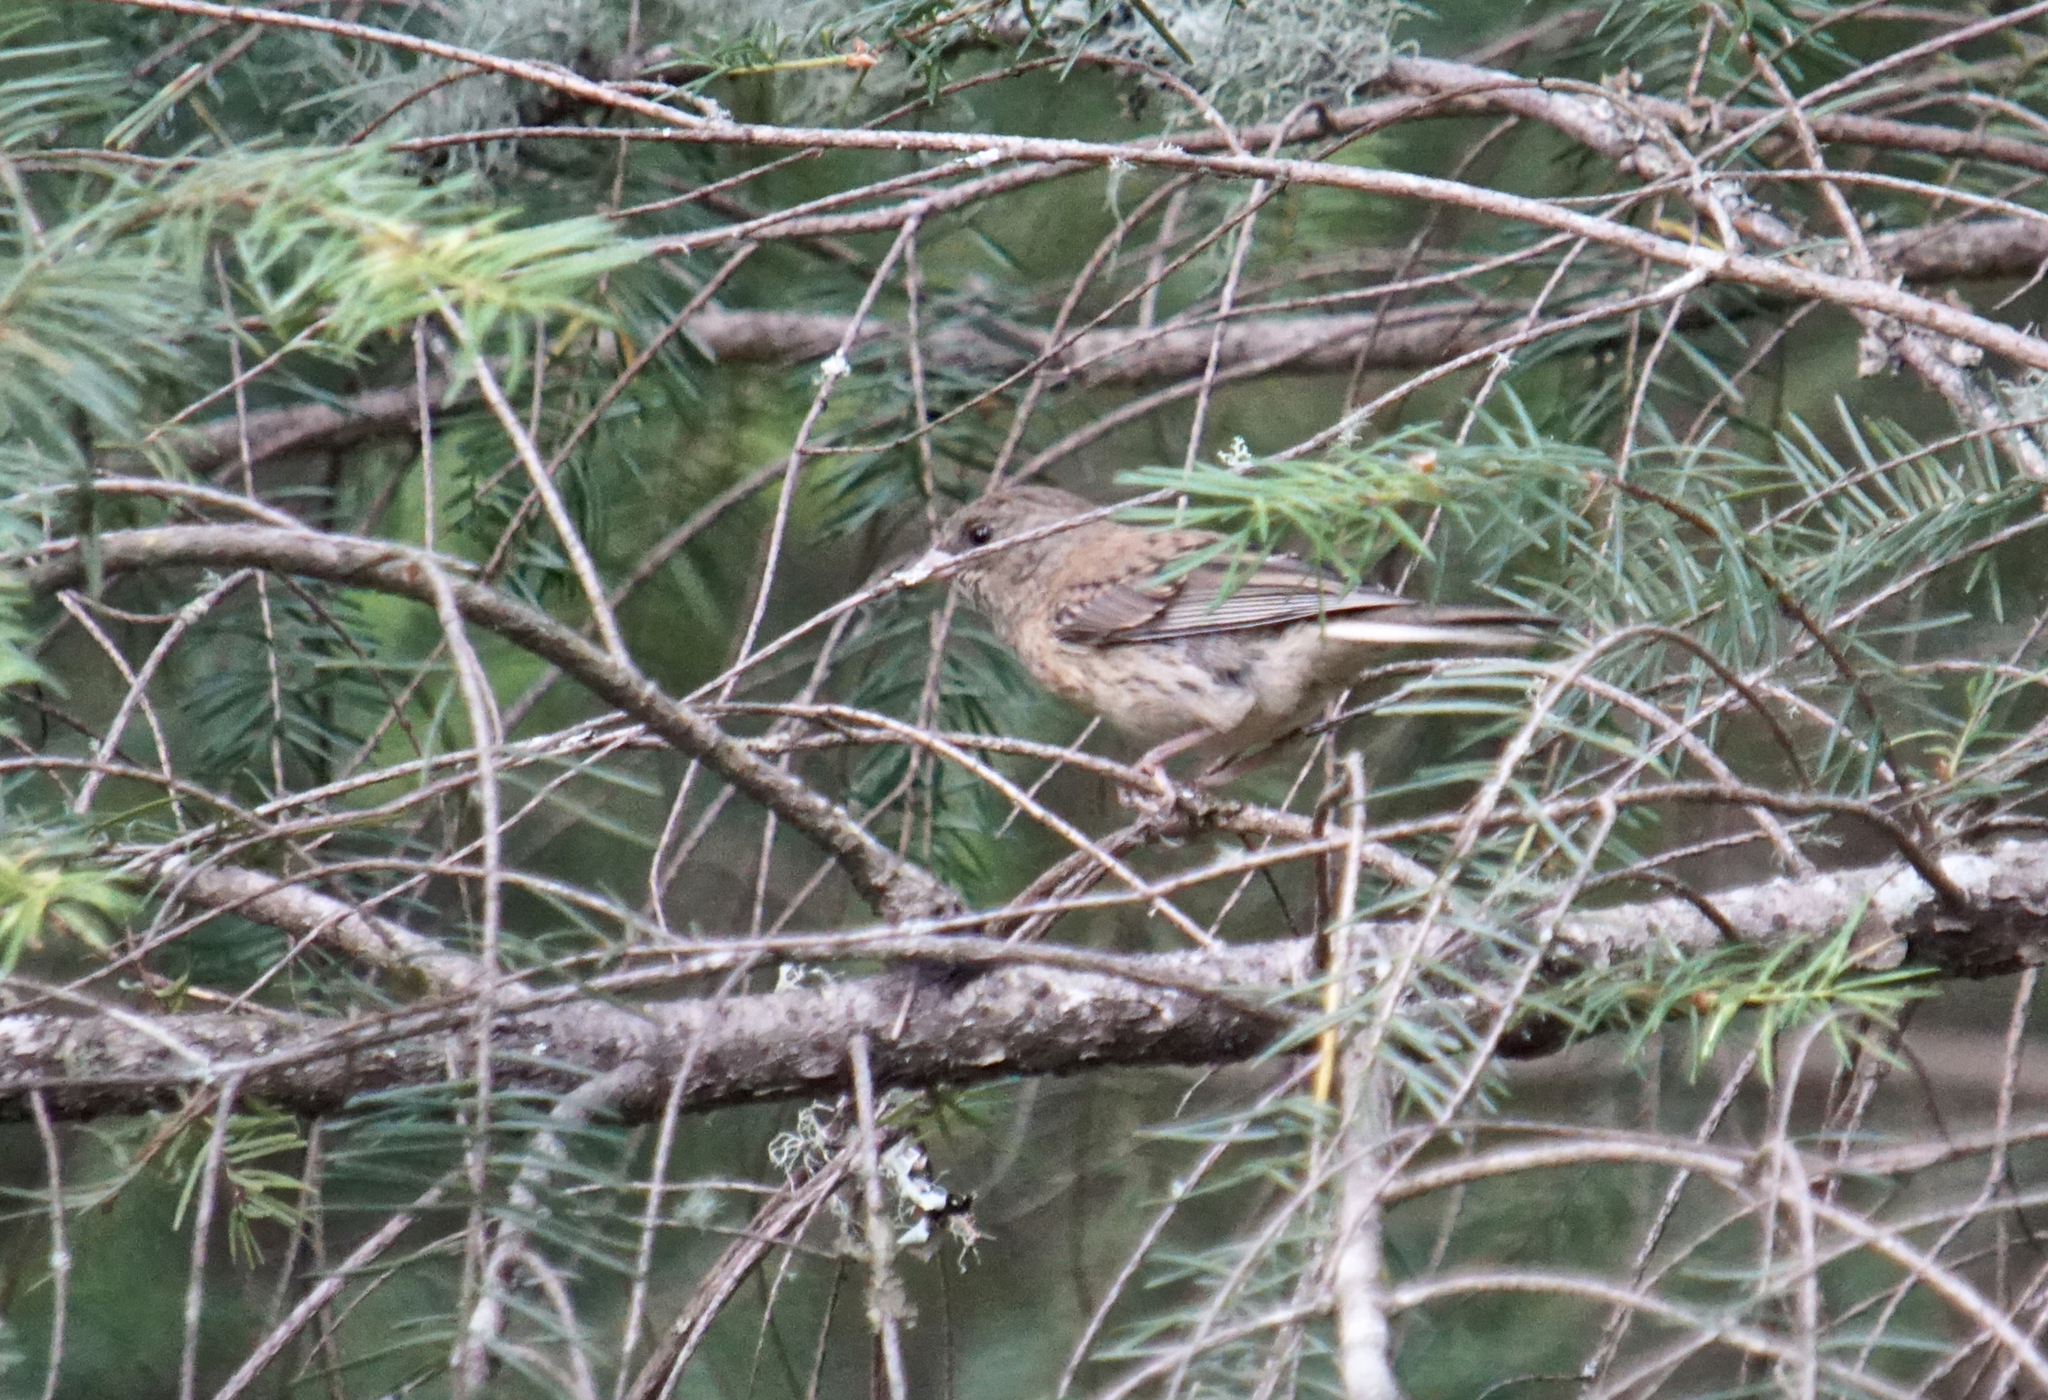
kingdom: Animalia
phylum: Chordata
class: Aves
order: Passeriformes
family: Passerellidae
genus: Junco
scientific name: Junco hyemalis
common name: Dark-eyed junco
